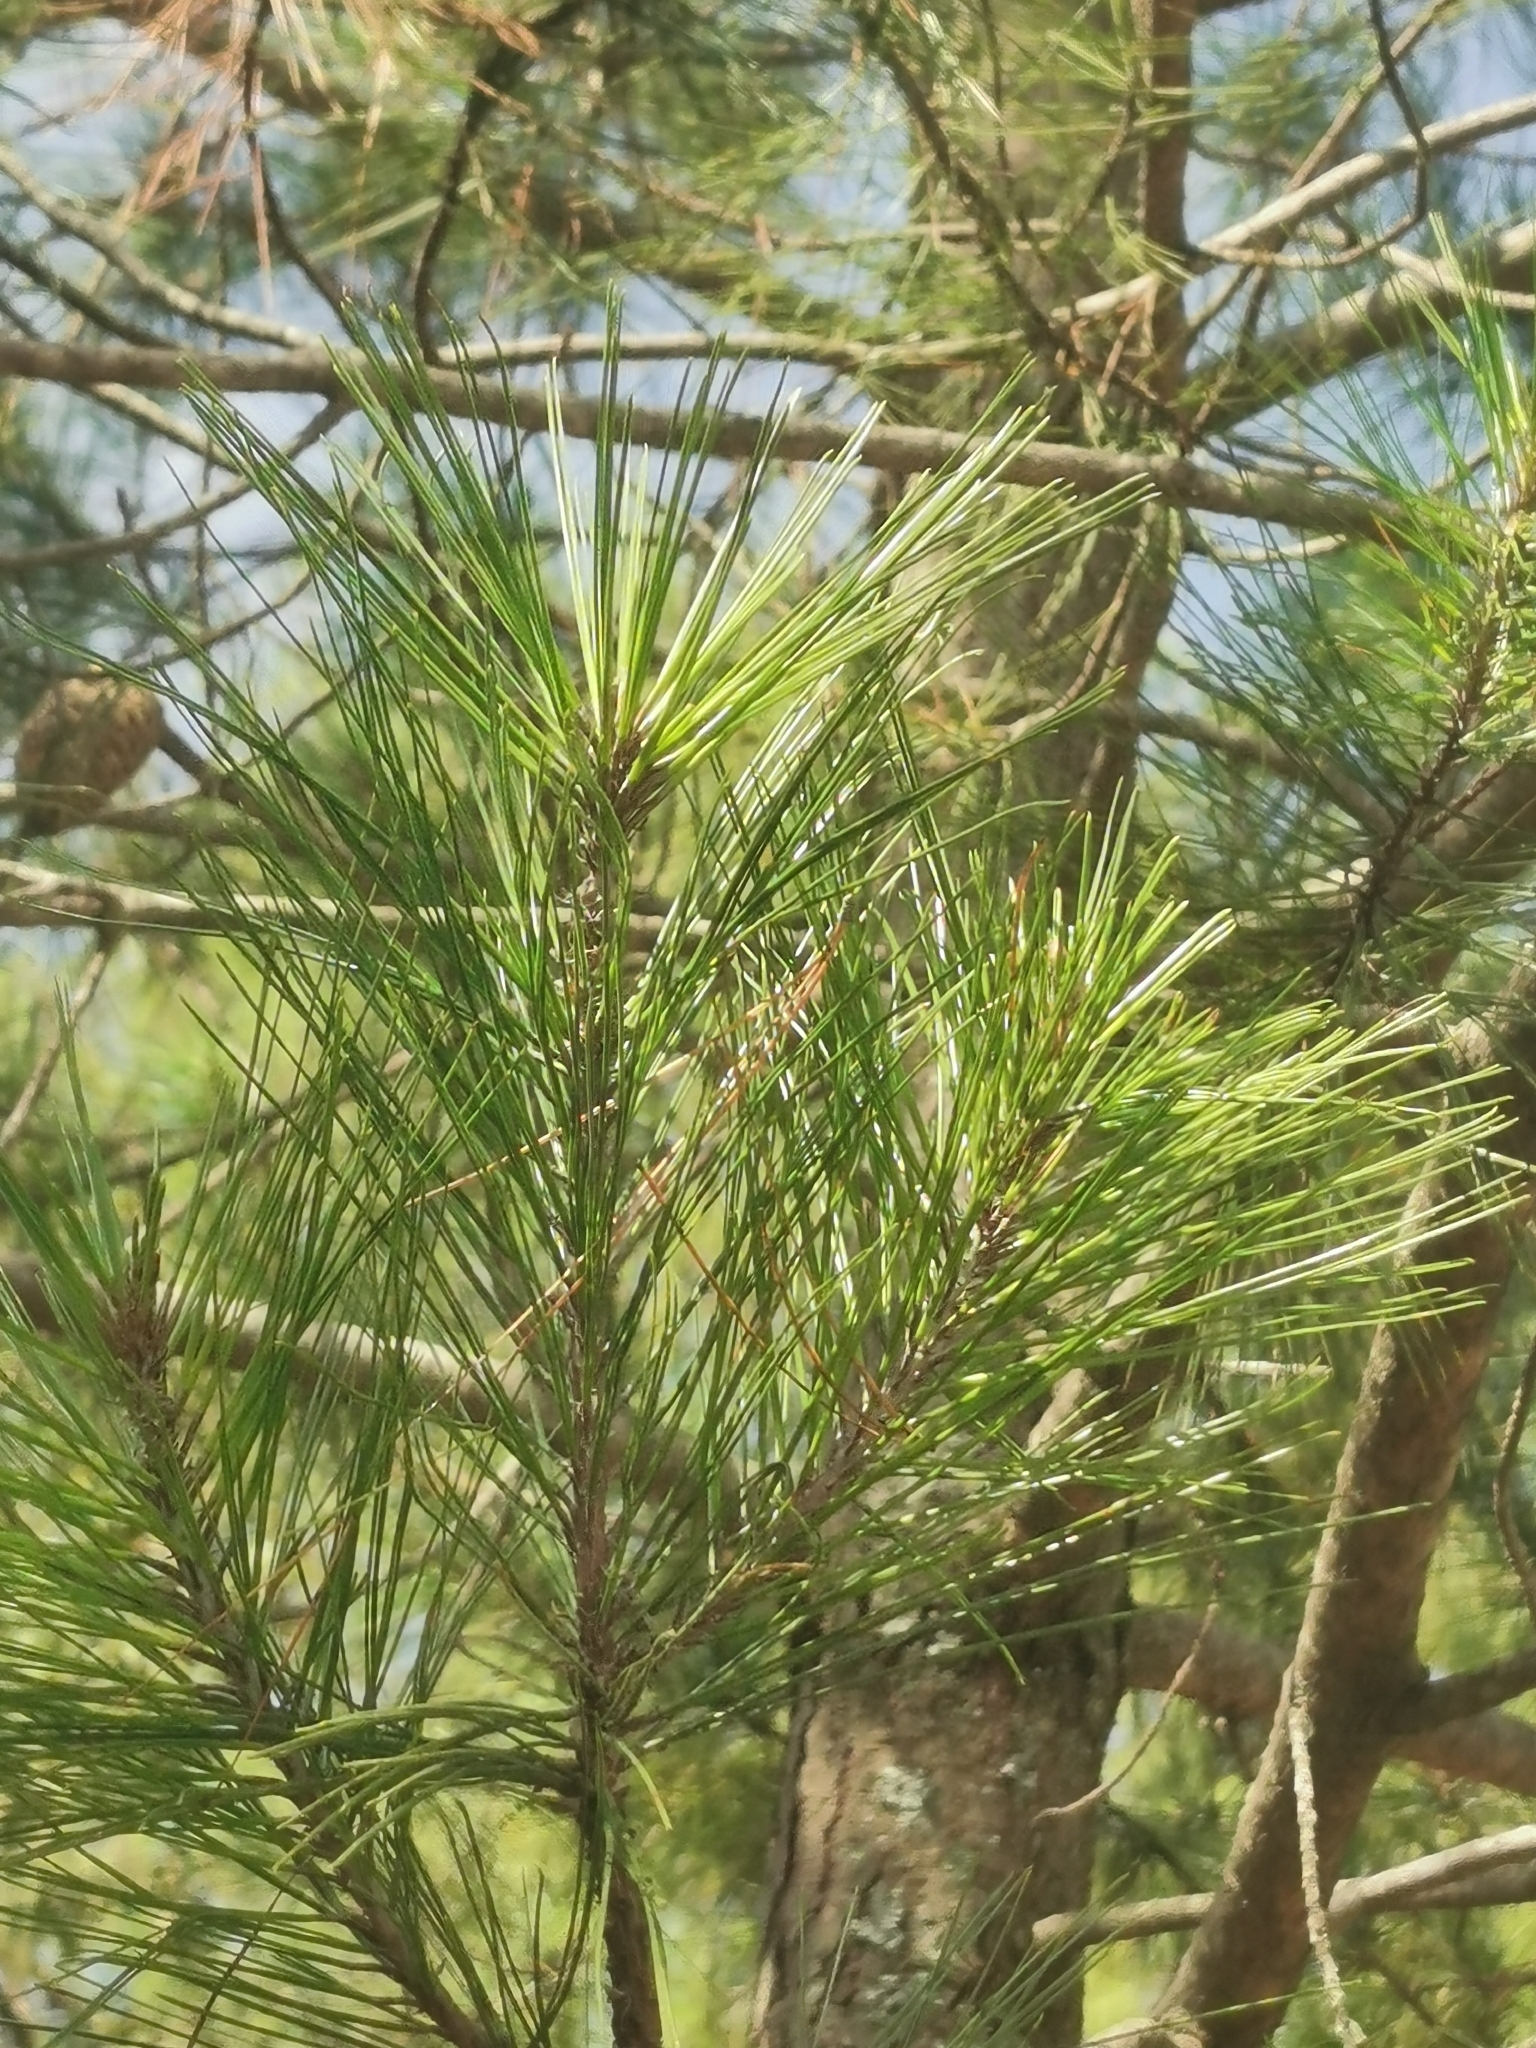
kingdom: Plantae
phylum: Tracheophyta
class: Pinopsida
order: Pinales
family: Pinaceae
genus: Pinus
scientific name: Pinus greggii
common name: Gregg’s pine
